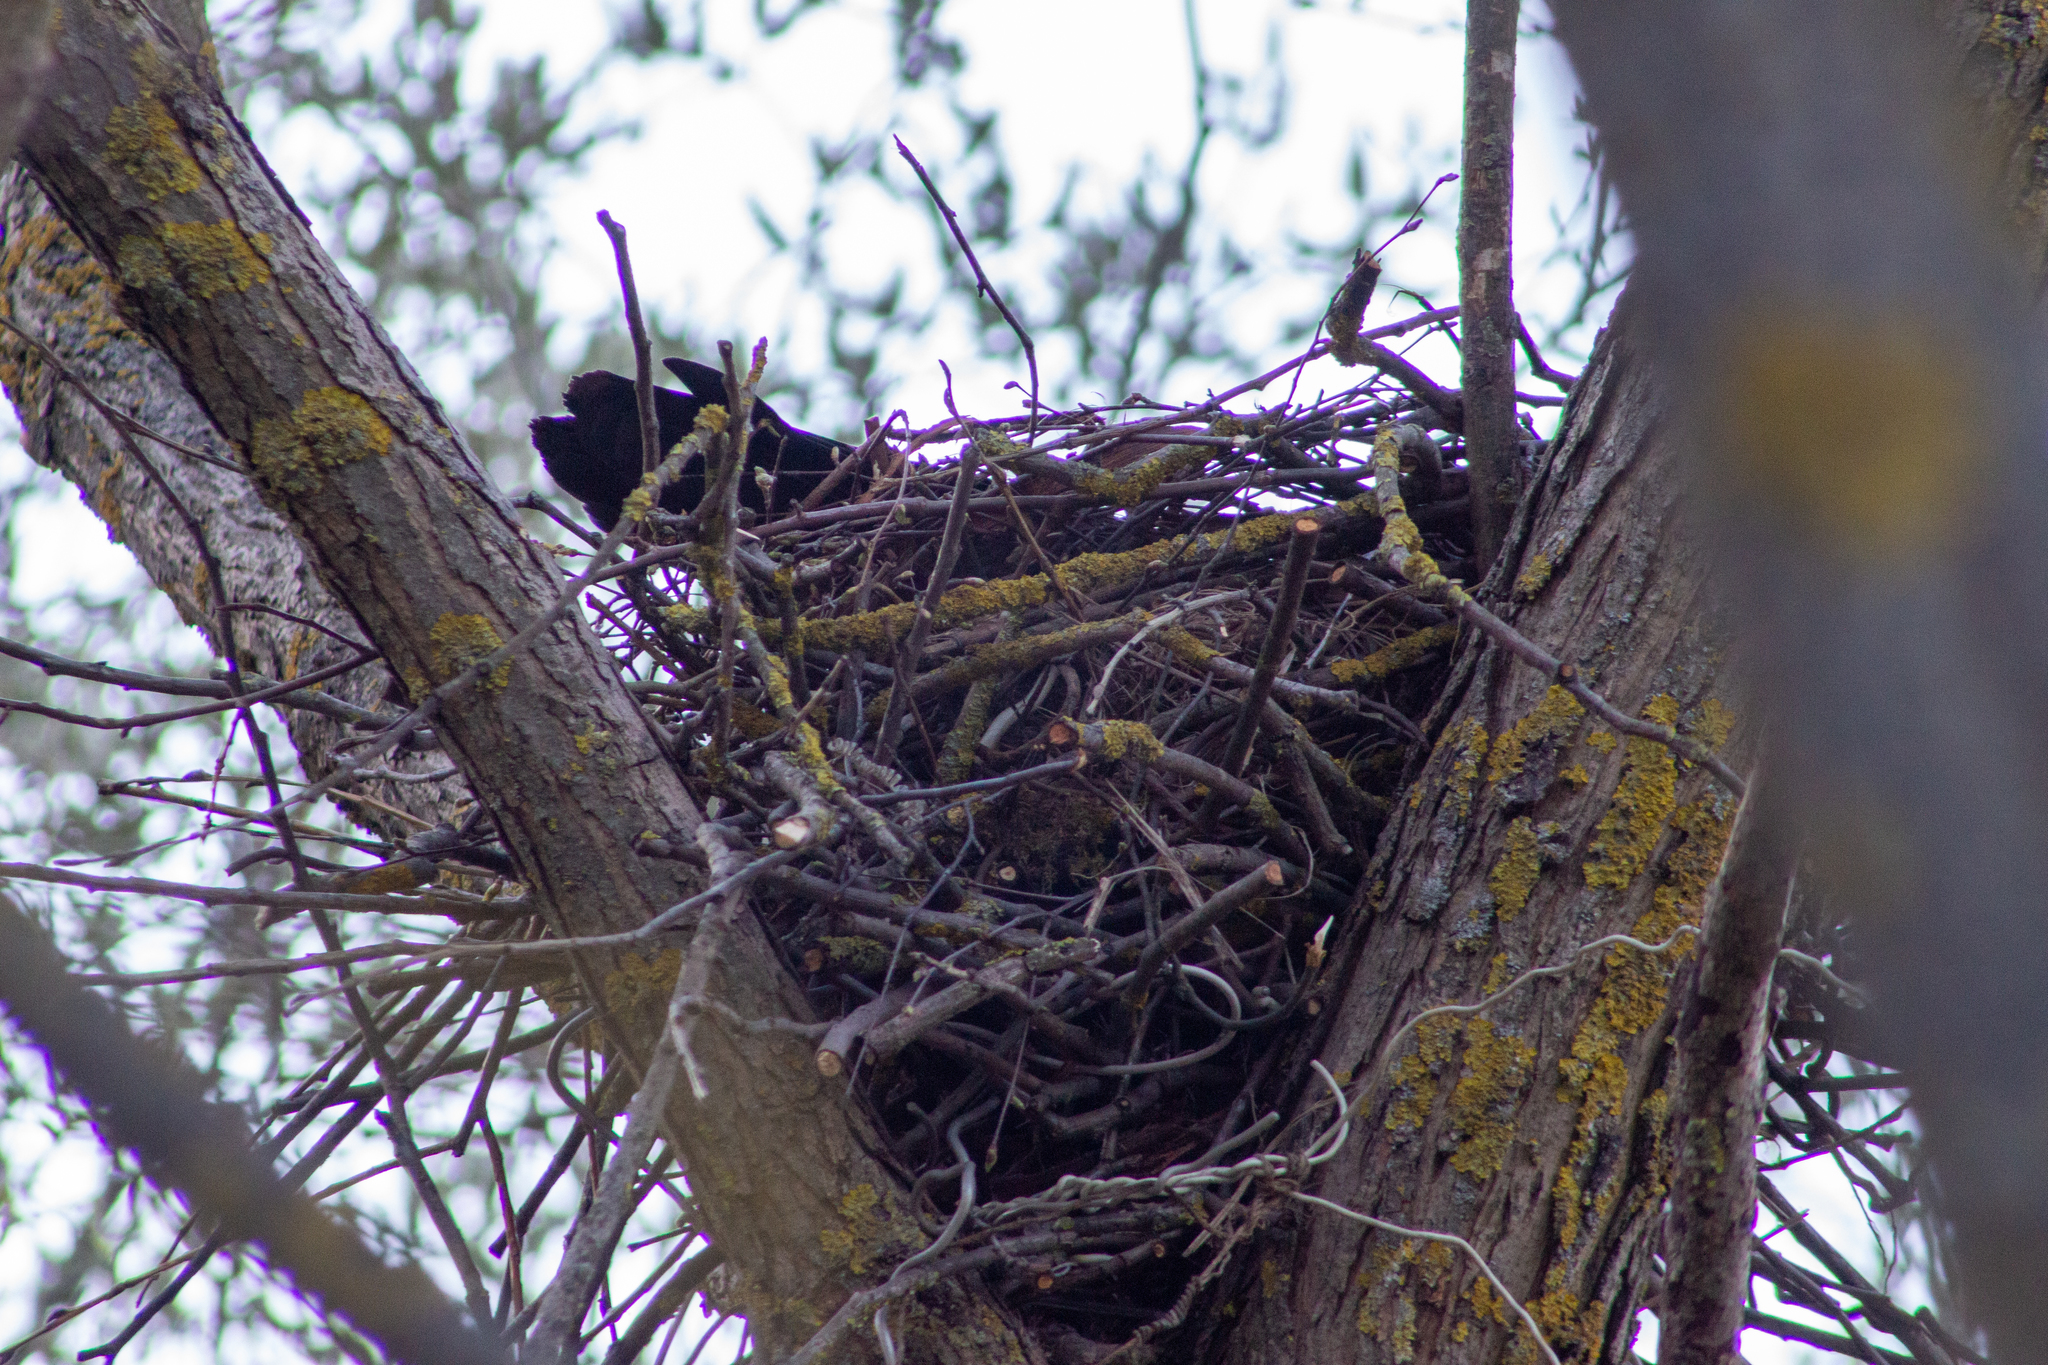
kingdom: Animalia
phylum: Chordata
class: Aves
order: Passeriformes
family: Corvidae
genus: Corvus
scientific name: Corvus frugilegus
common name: Rook
